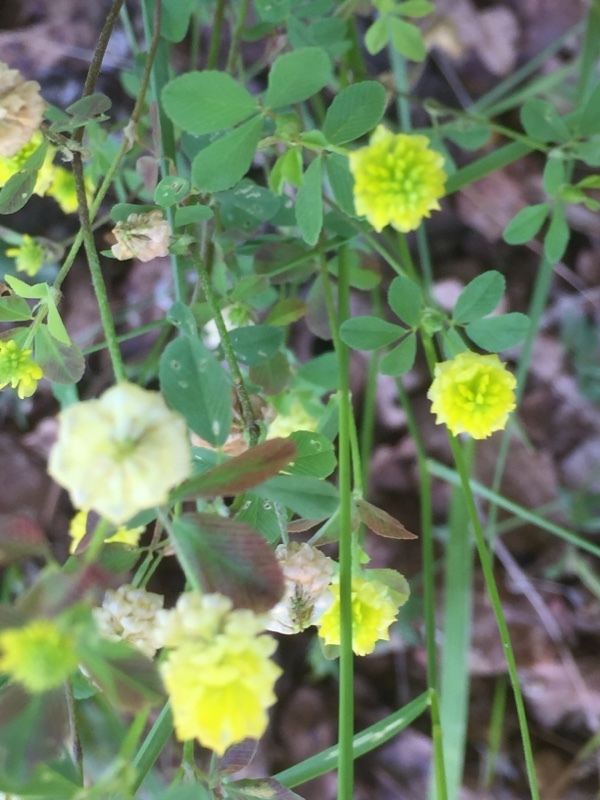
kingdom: Plantae
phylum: Tracheophyta
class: Magnoliopsida
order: Fabales
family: Fabaceae
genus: Trifolium
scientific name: Trifolium campestre
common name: Field clover
